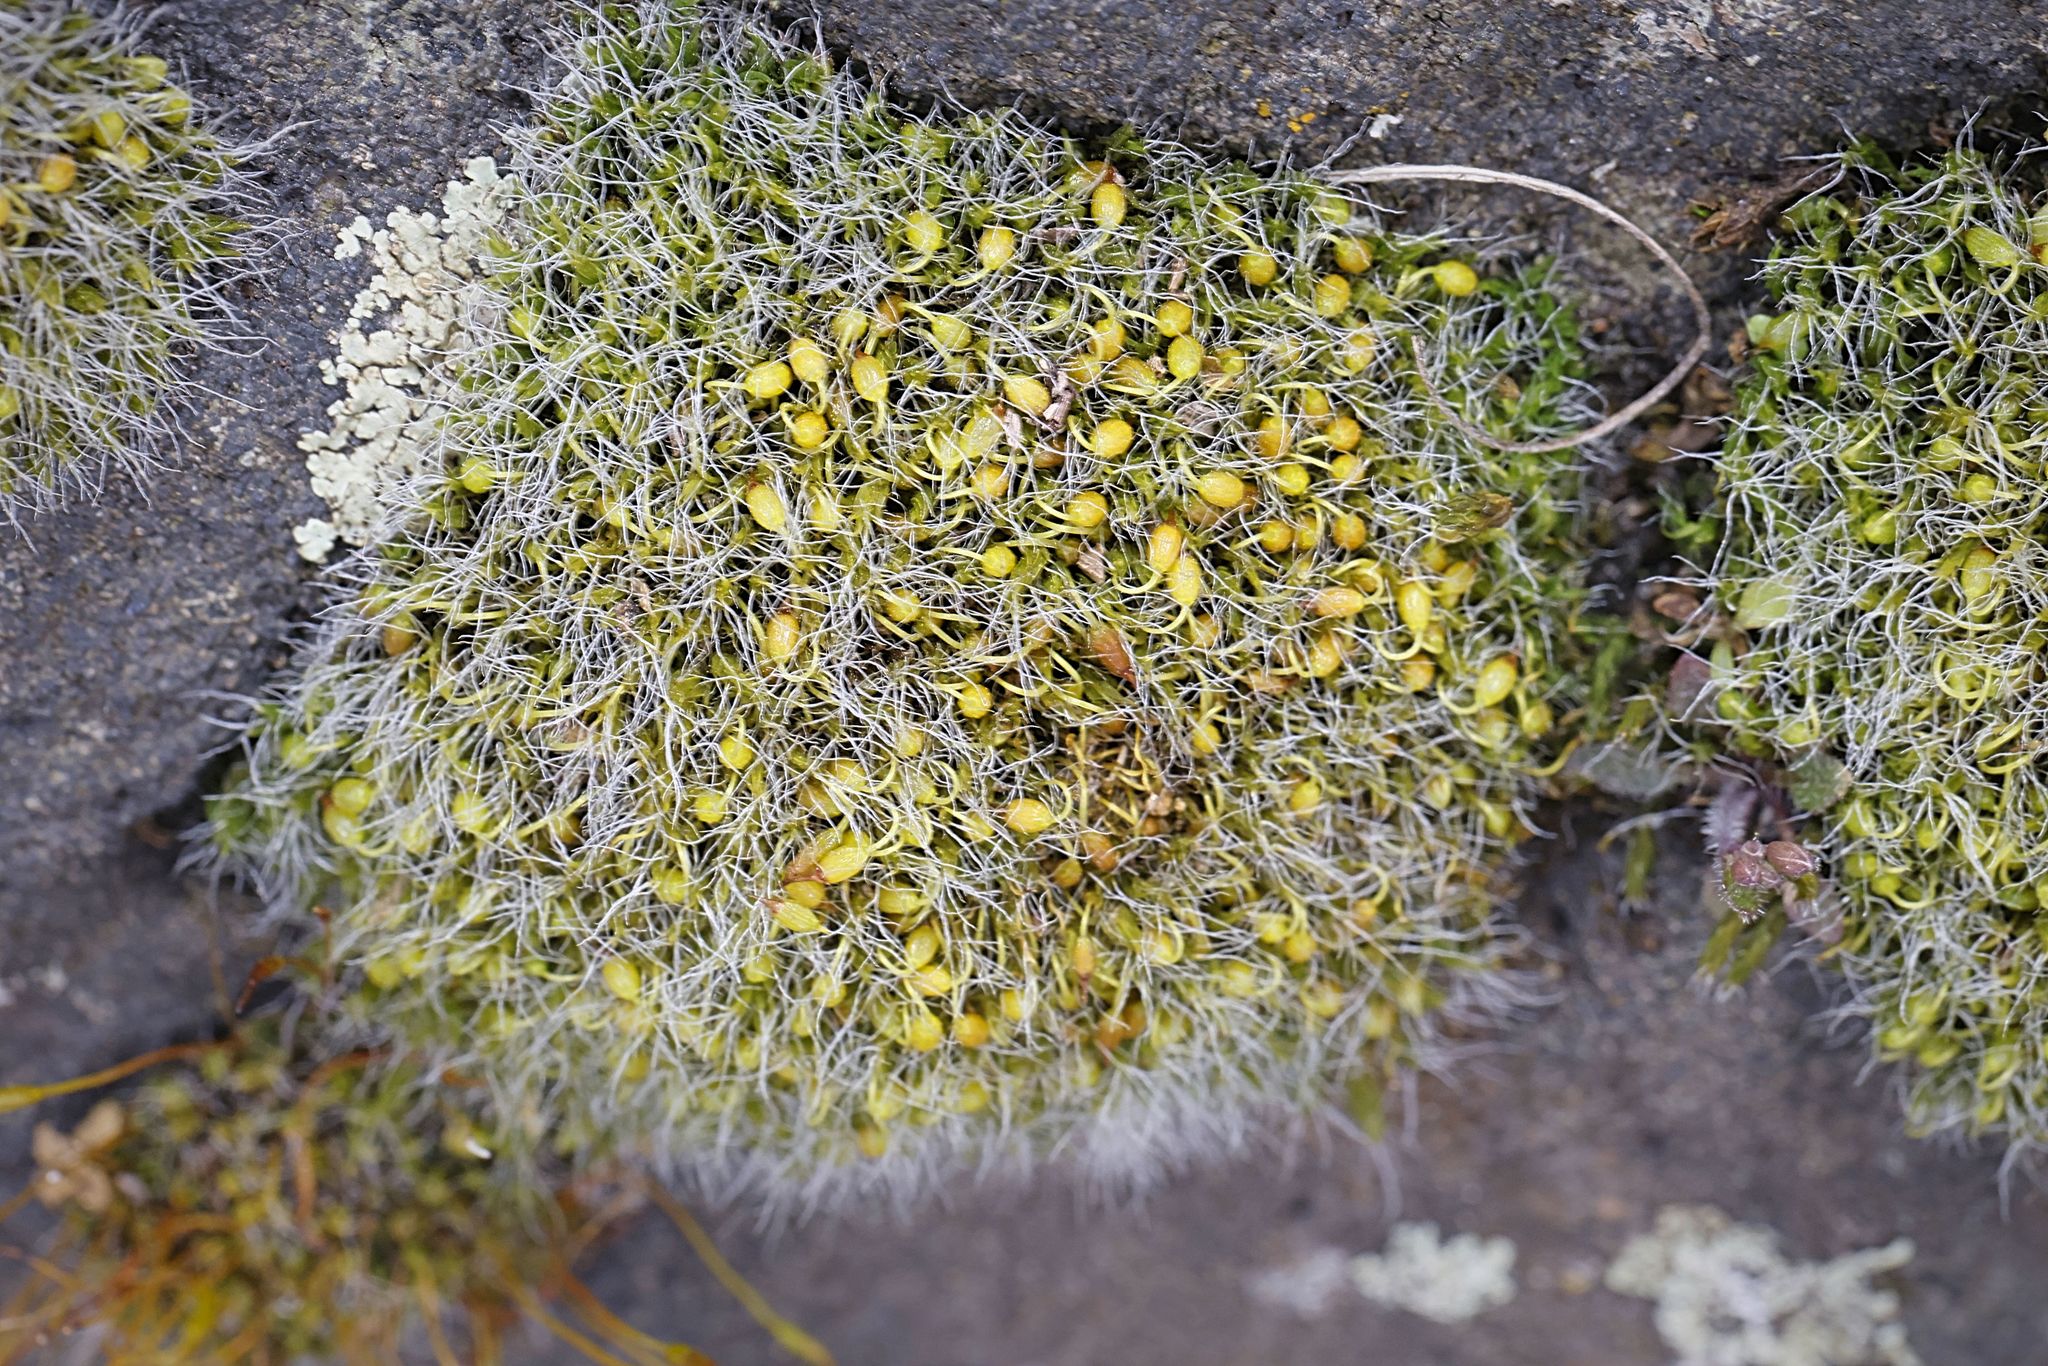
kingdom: Plantae
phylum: Bryophyta
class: Bryopsida
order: Grimmiales
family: Grimmiaceae
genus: Grimmia
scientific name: Grimmia pulvinata
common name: Grey-cushioned grimmia
